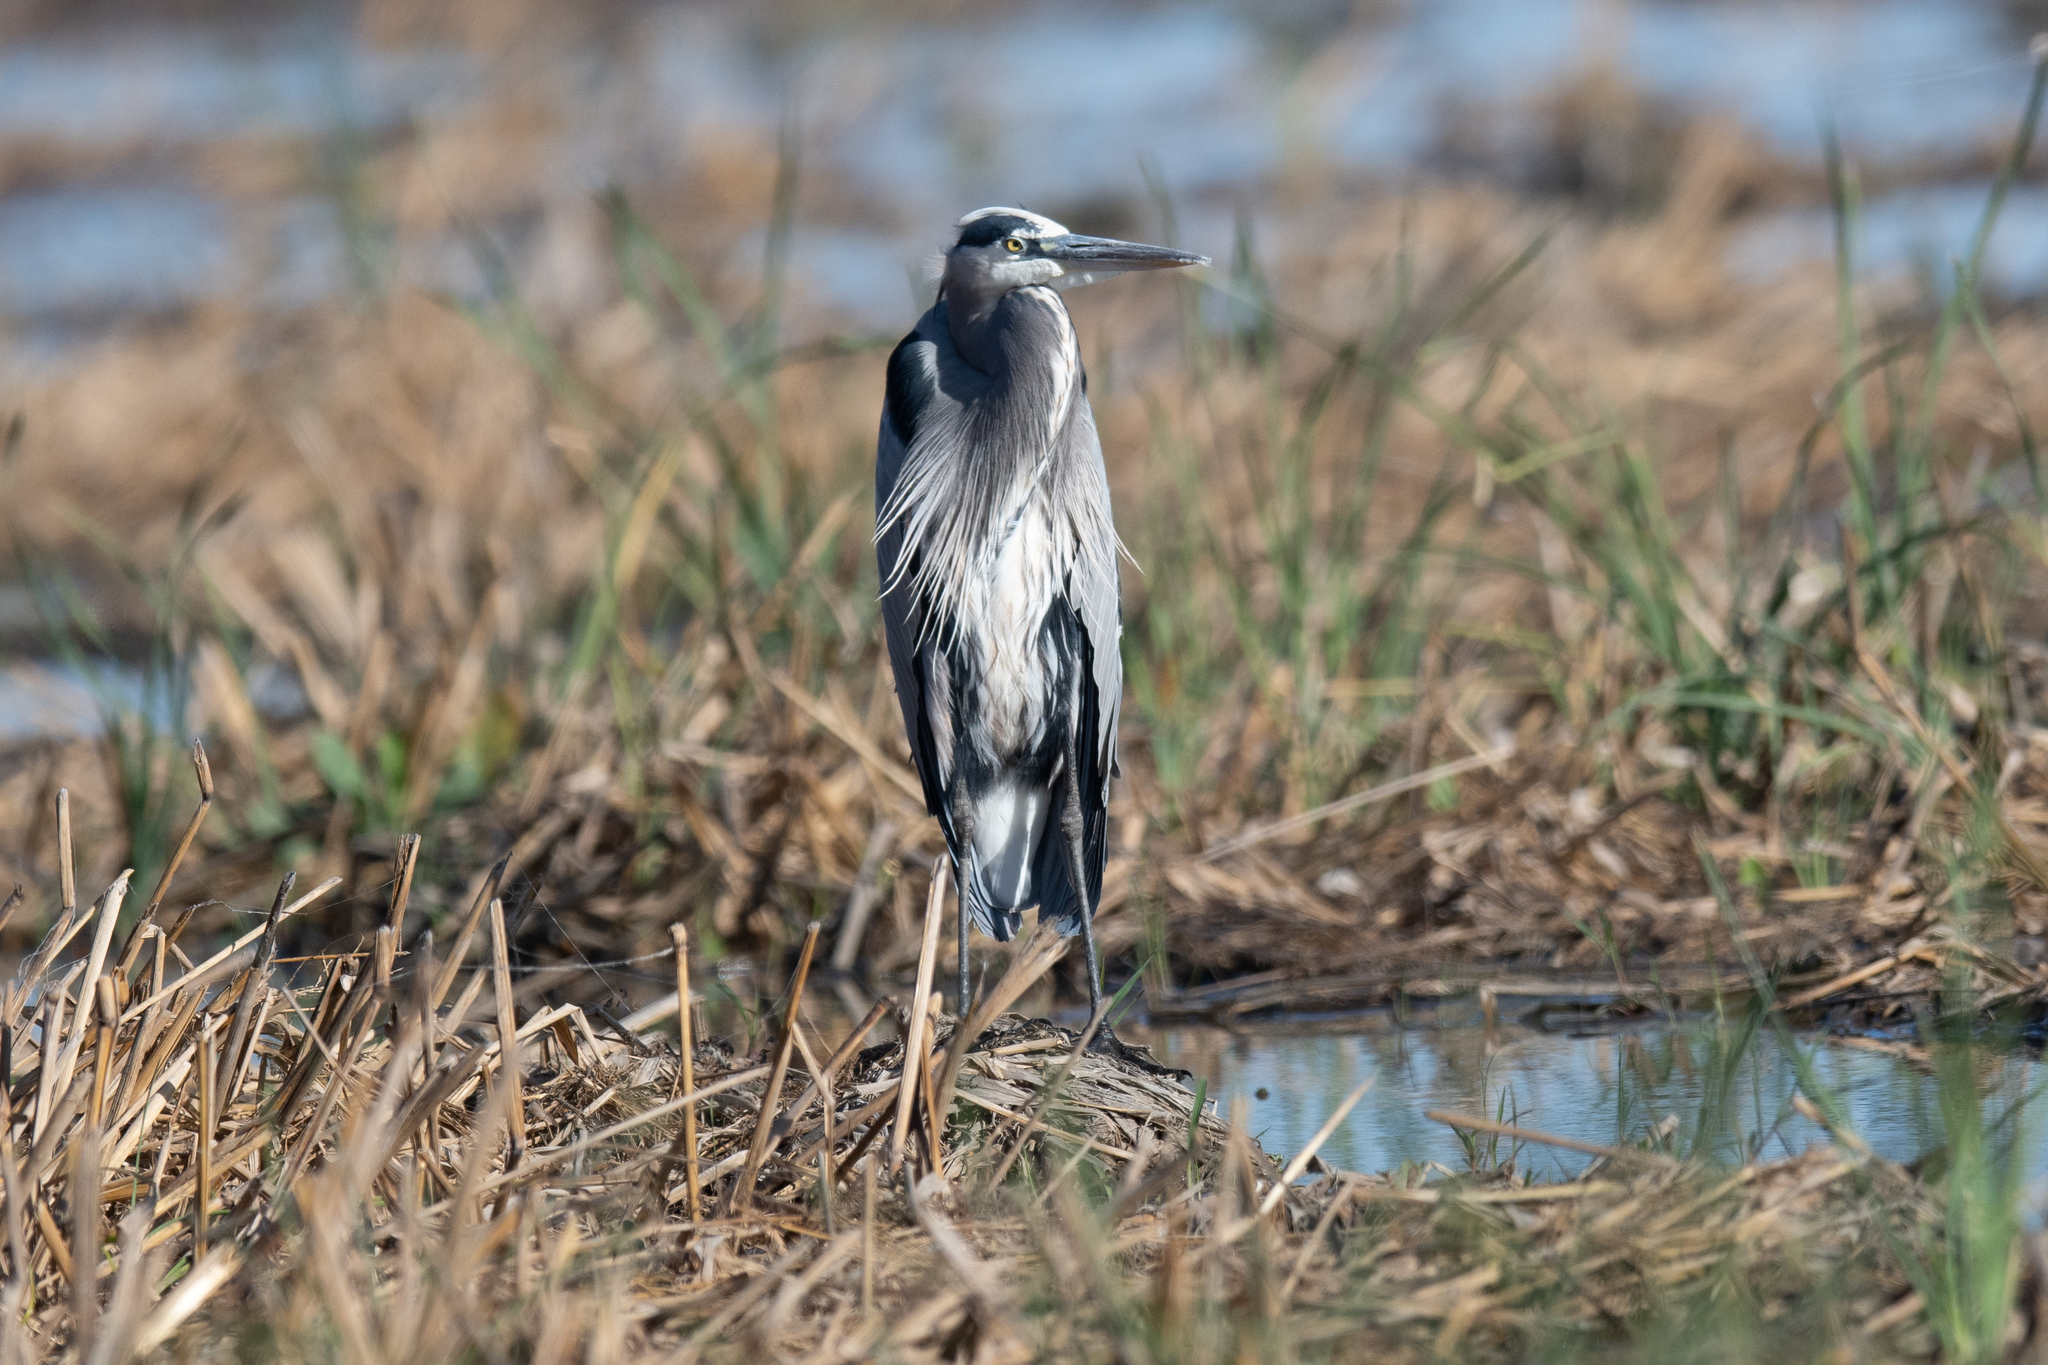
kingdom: Animalia
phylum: Chordata
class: Aves
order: Pelecaniformes
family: Ardeidae
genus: Ardea
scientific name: Ardea herodias
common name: Great blue heron
